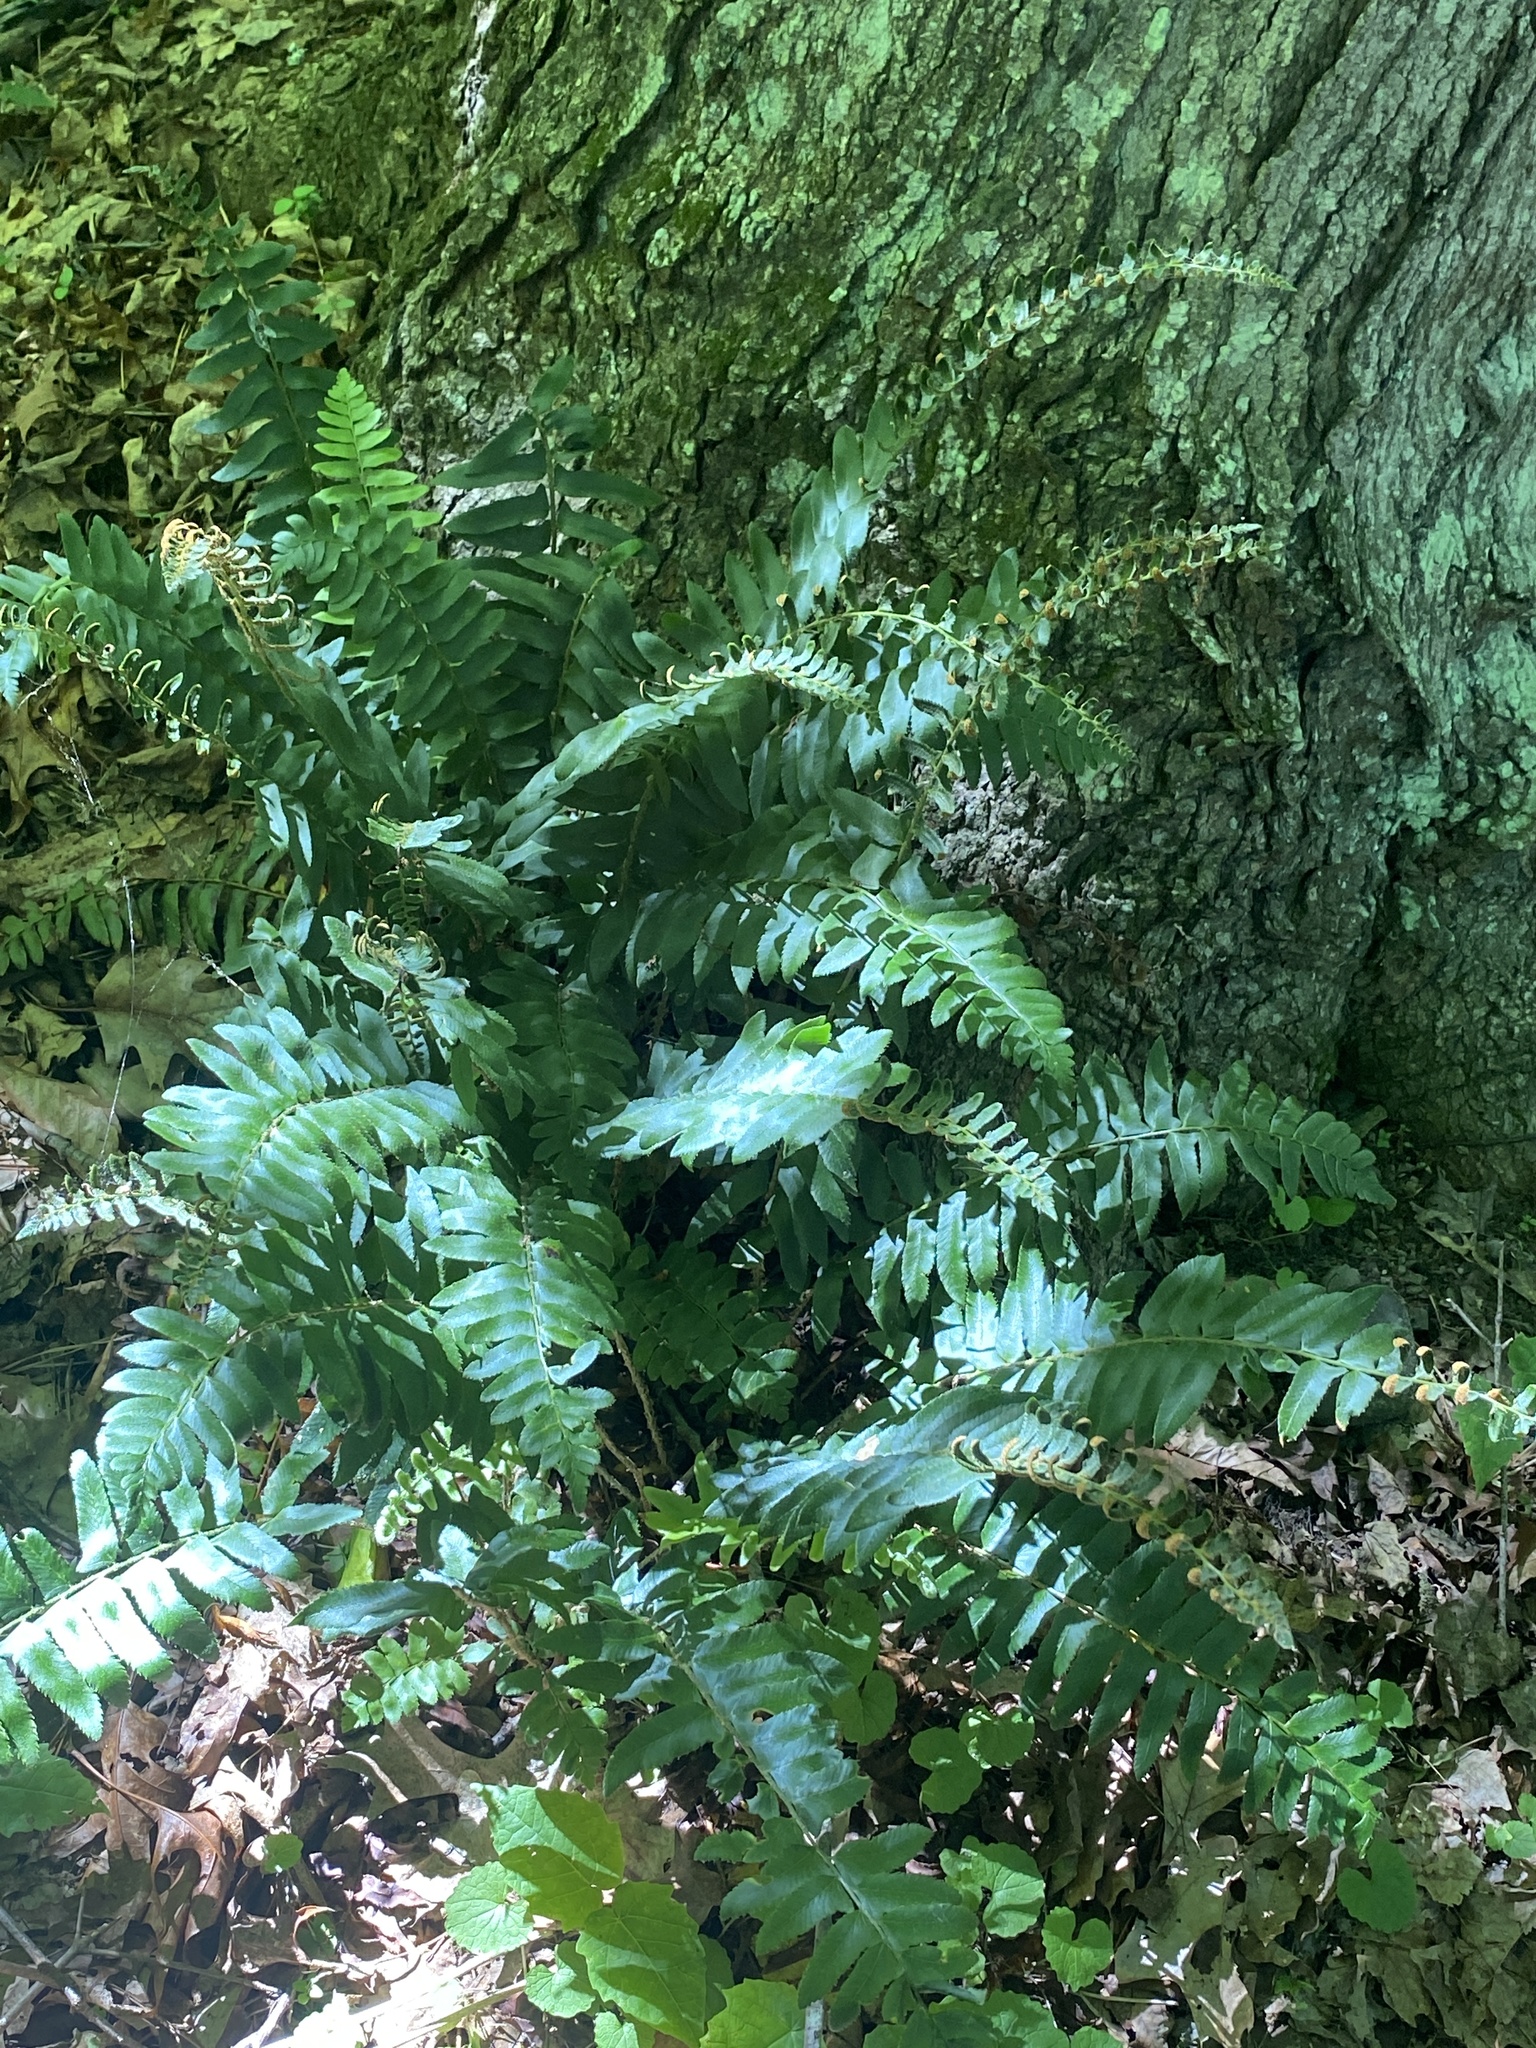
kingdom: Plantae
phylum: Tracheophyta
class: Polypodiopsida
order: Polypodiales
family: Dryopteridaceae
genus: Polystichum
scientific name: Polystichum acrostichoides
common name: Christmas fern
